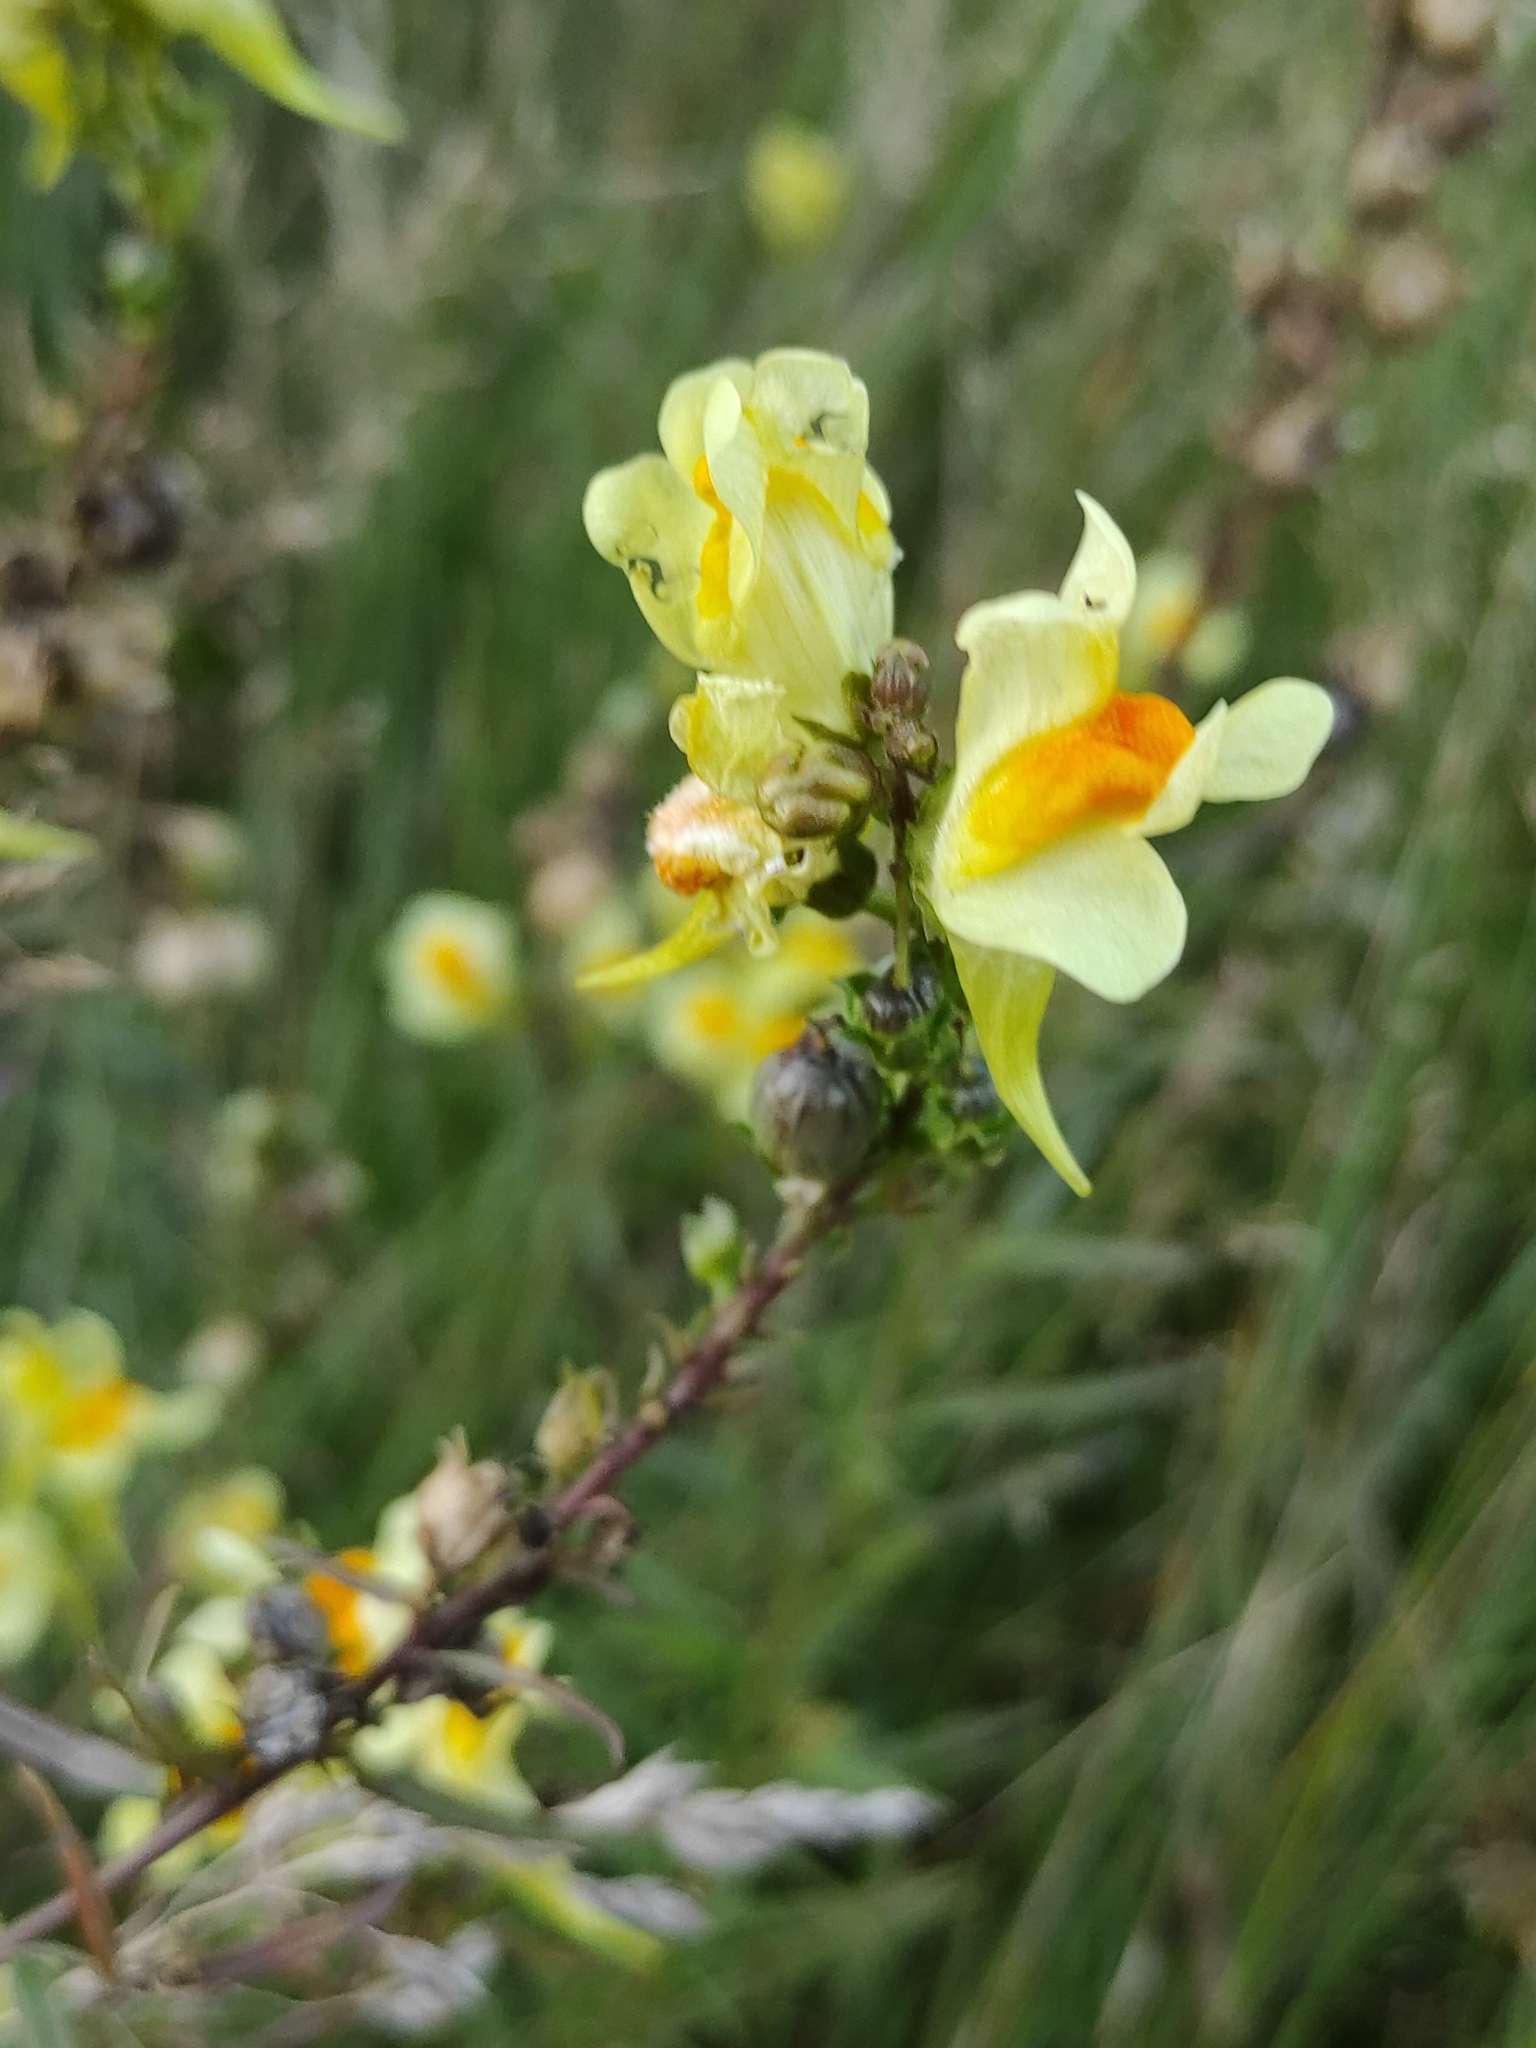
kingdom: Plantae
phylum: Tracheophyta
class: Magnoliopsida
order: Lamiales
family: Plantaginaceae
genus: Linaria
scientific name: Linaria vulgaris
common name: Butter and eggs
